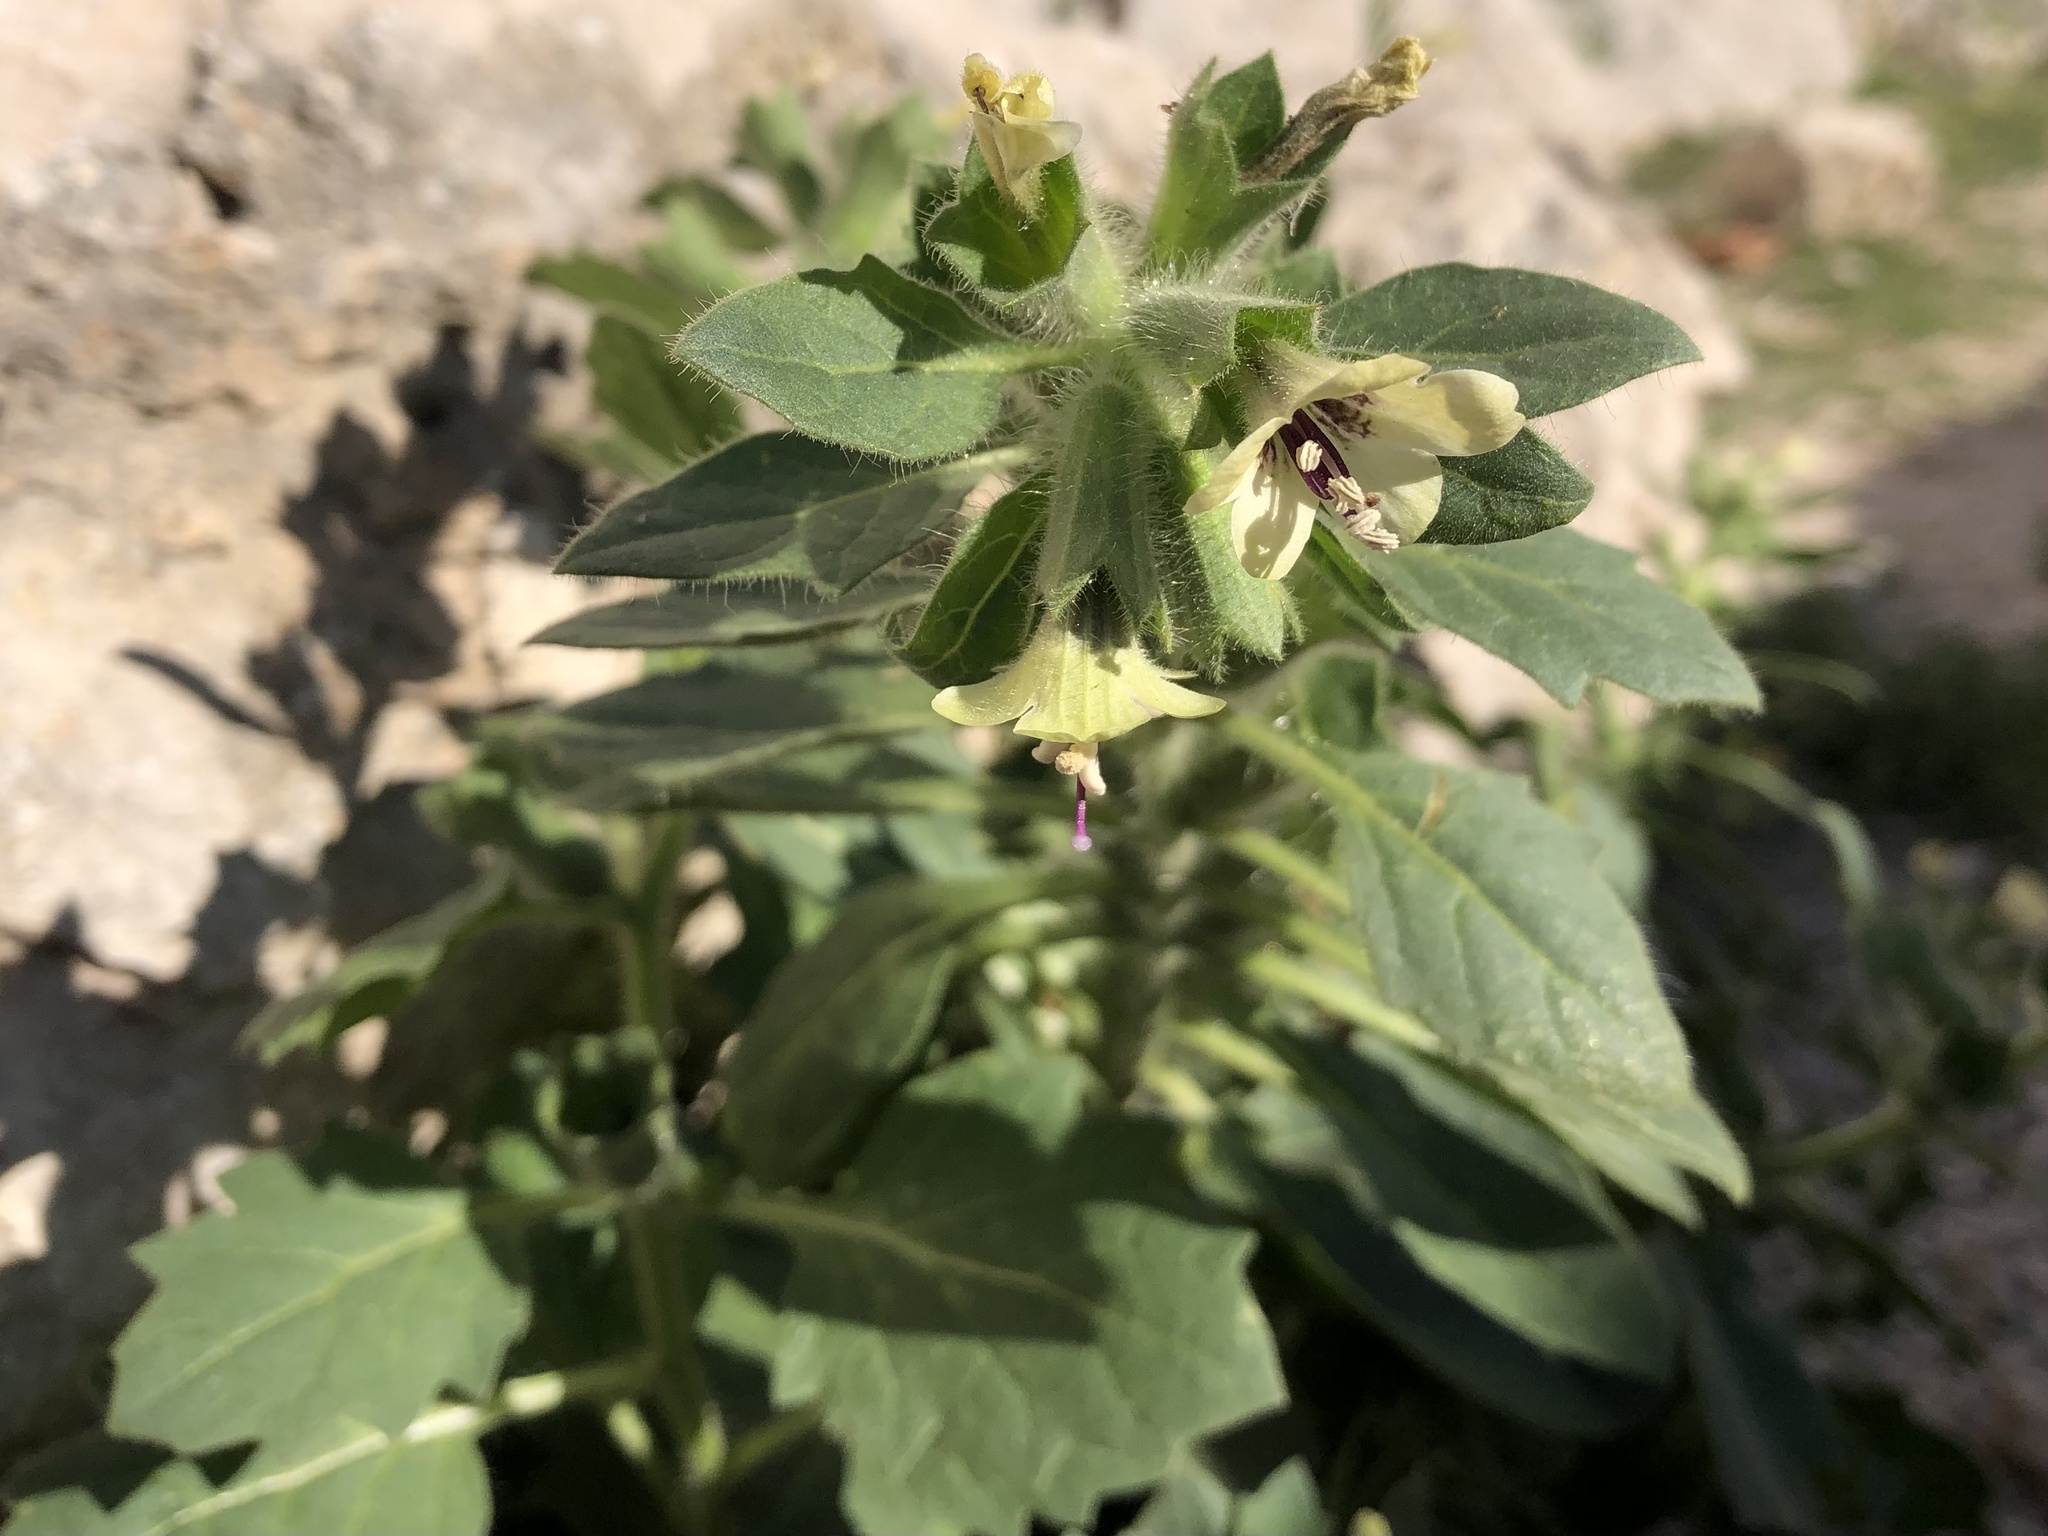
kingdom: Plantae
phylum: Tracheophyta
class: Magnoliopsida
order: Solanales
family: Solanaceae
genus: Hyoscyamus
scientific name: Hyoscyamus albus
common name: White henbane
